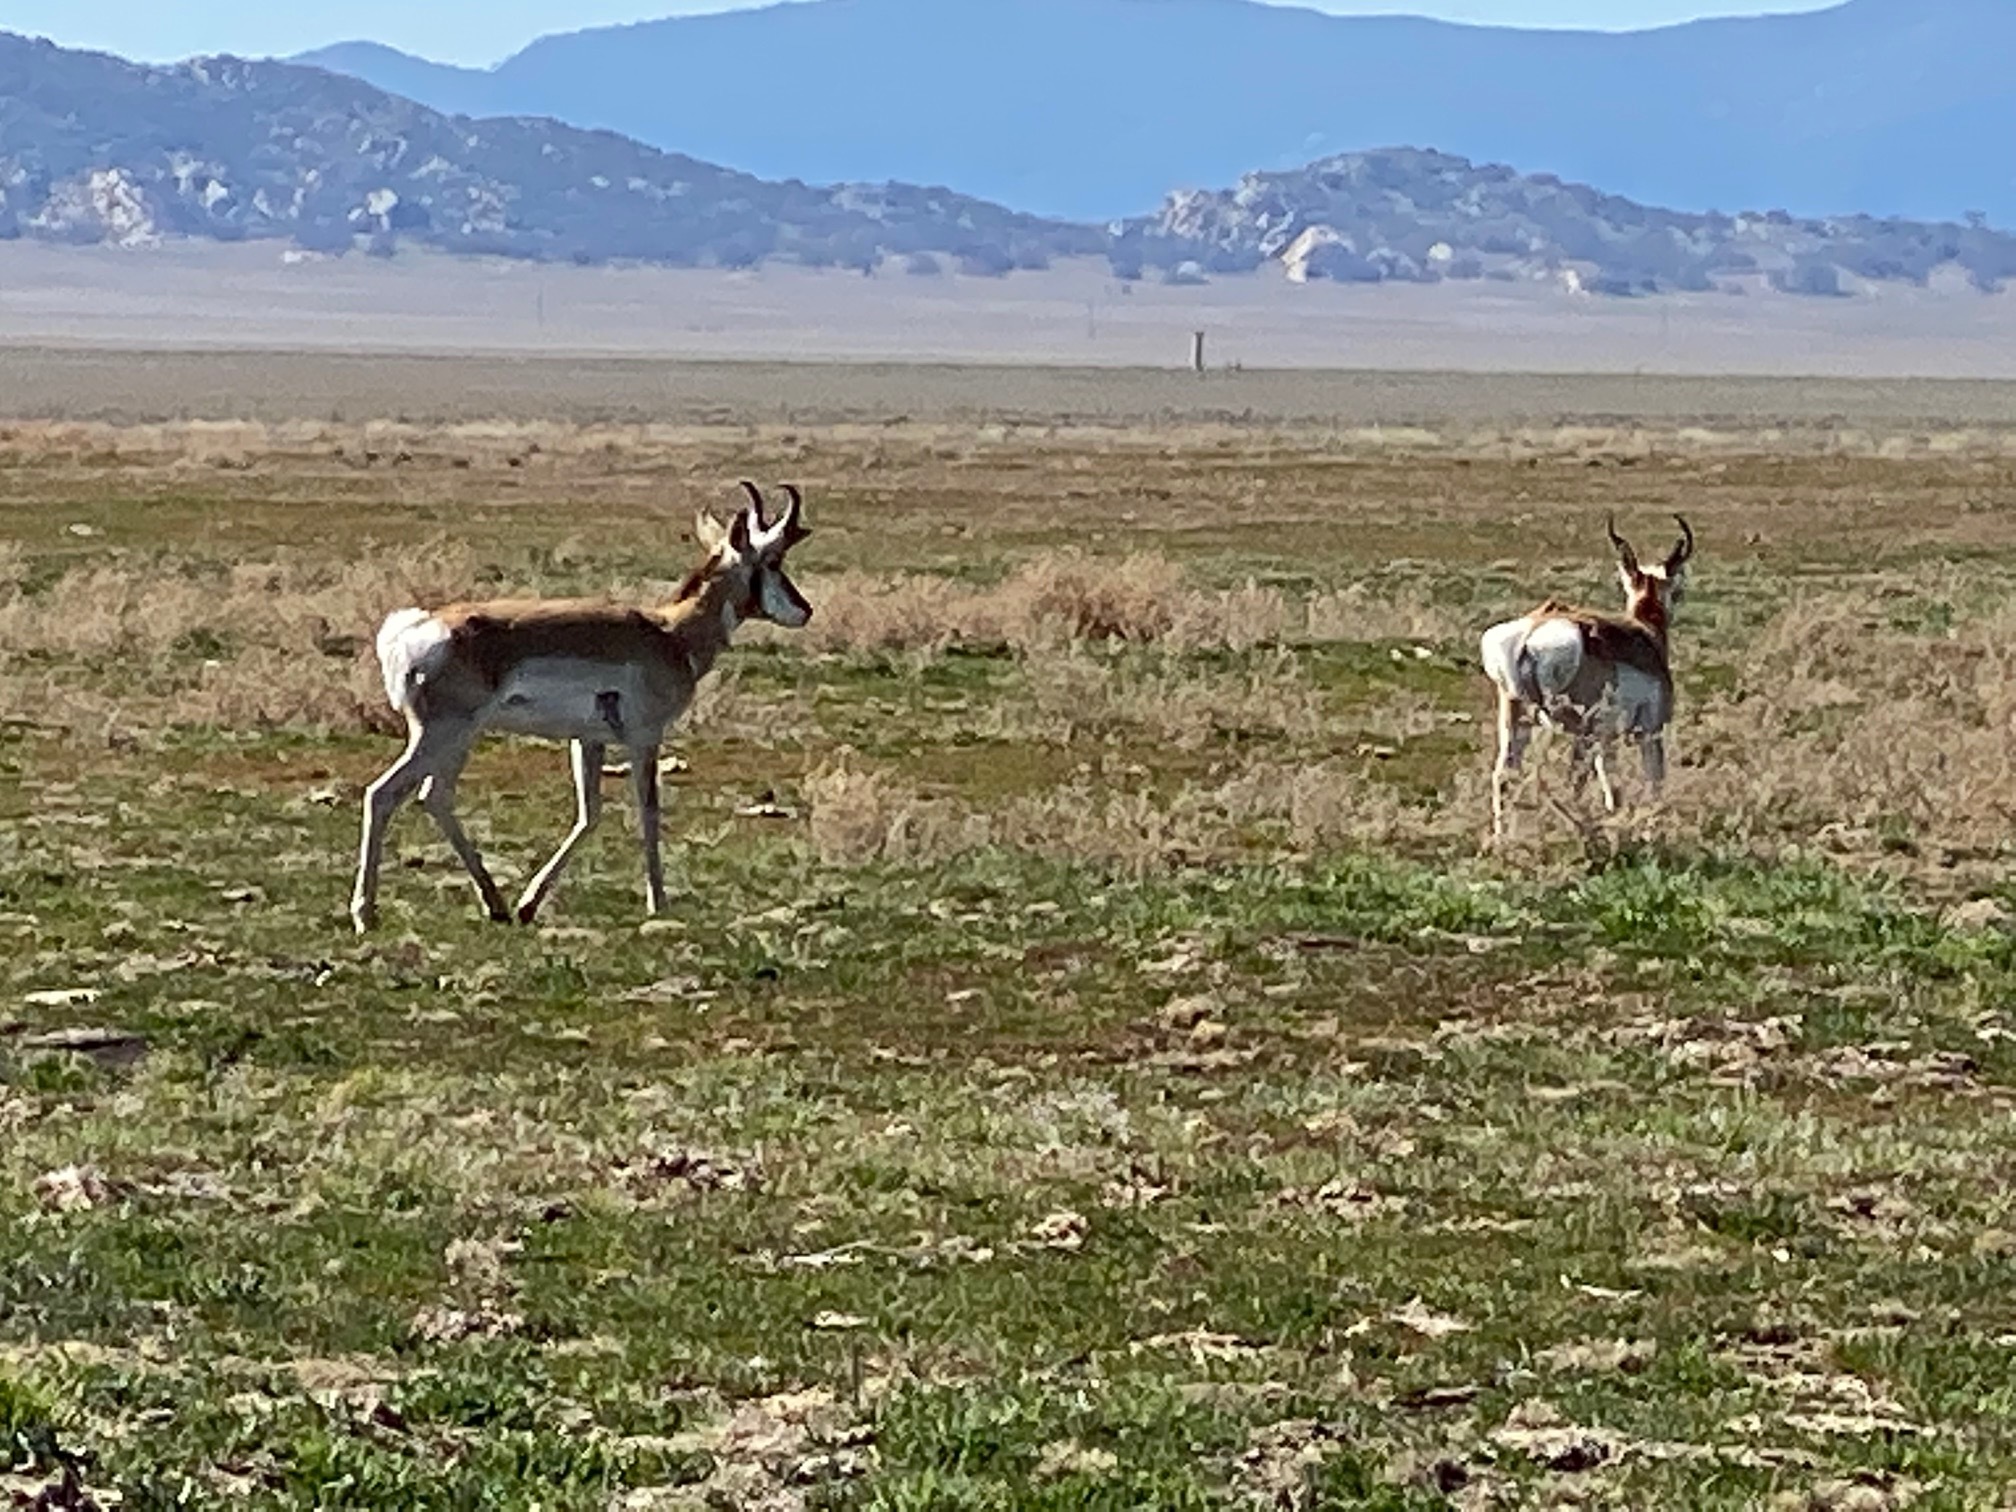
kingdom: Animalia
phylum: Chordata
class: Mammalia
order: Artiodactyla
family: Antilocapridae
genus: Antilocapra
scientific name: Antilocapra americana
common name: Pronghorn
